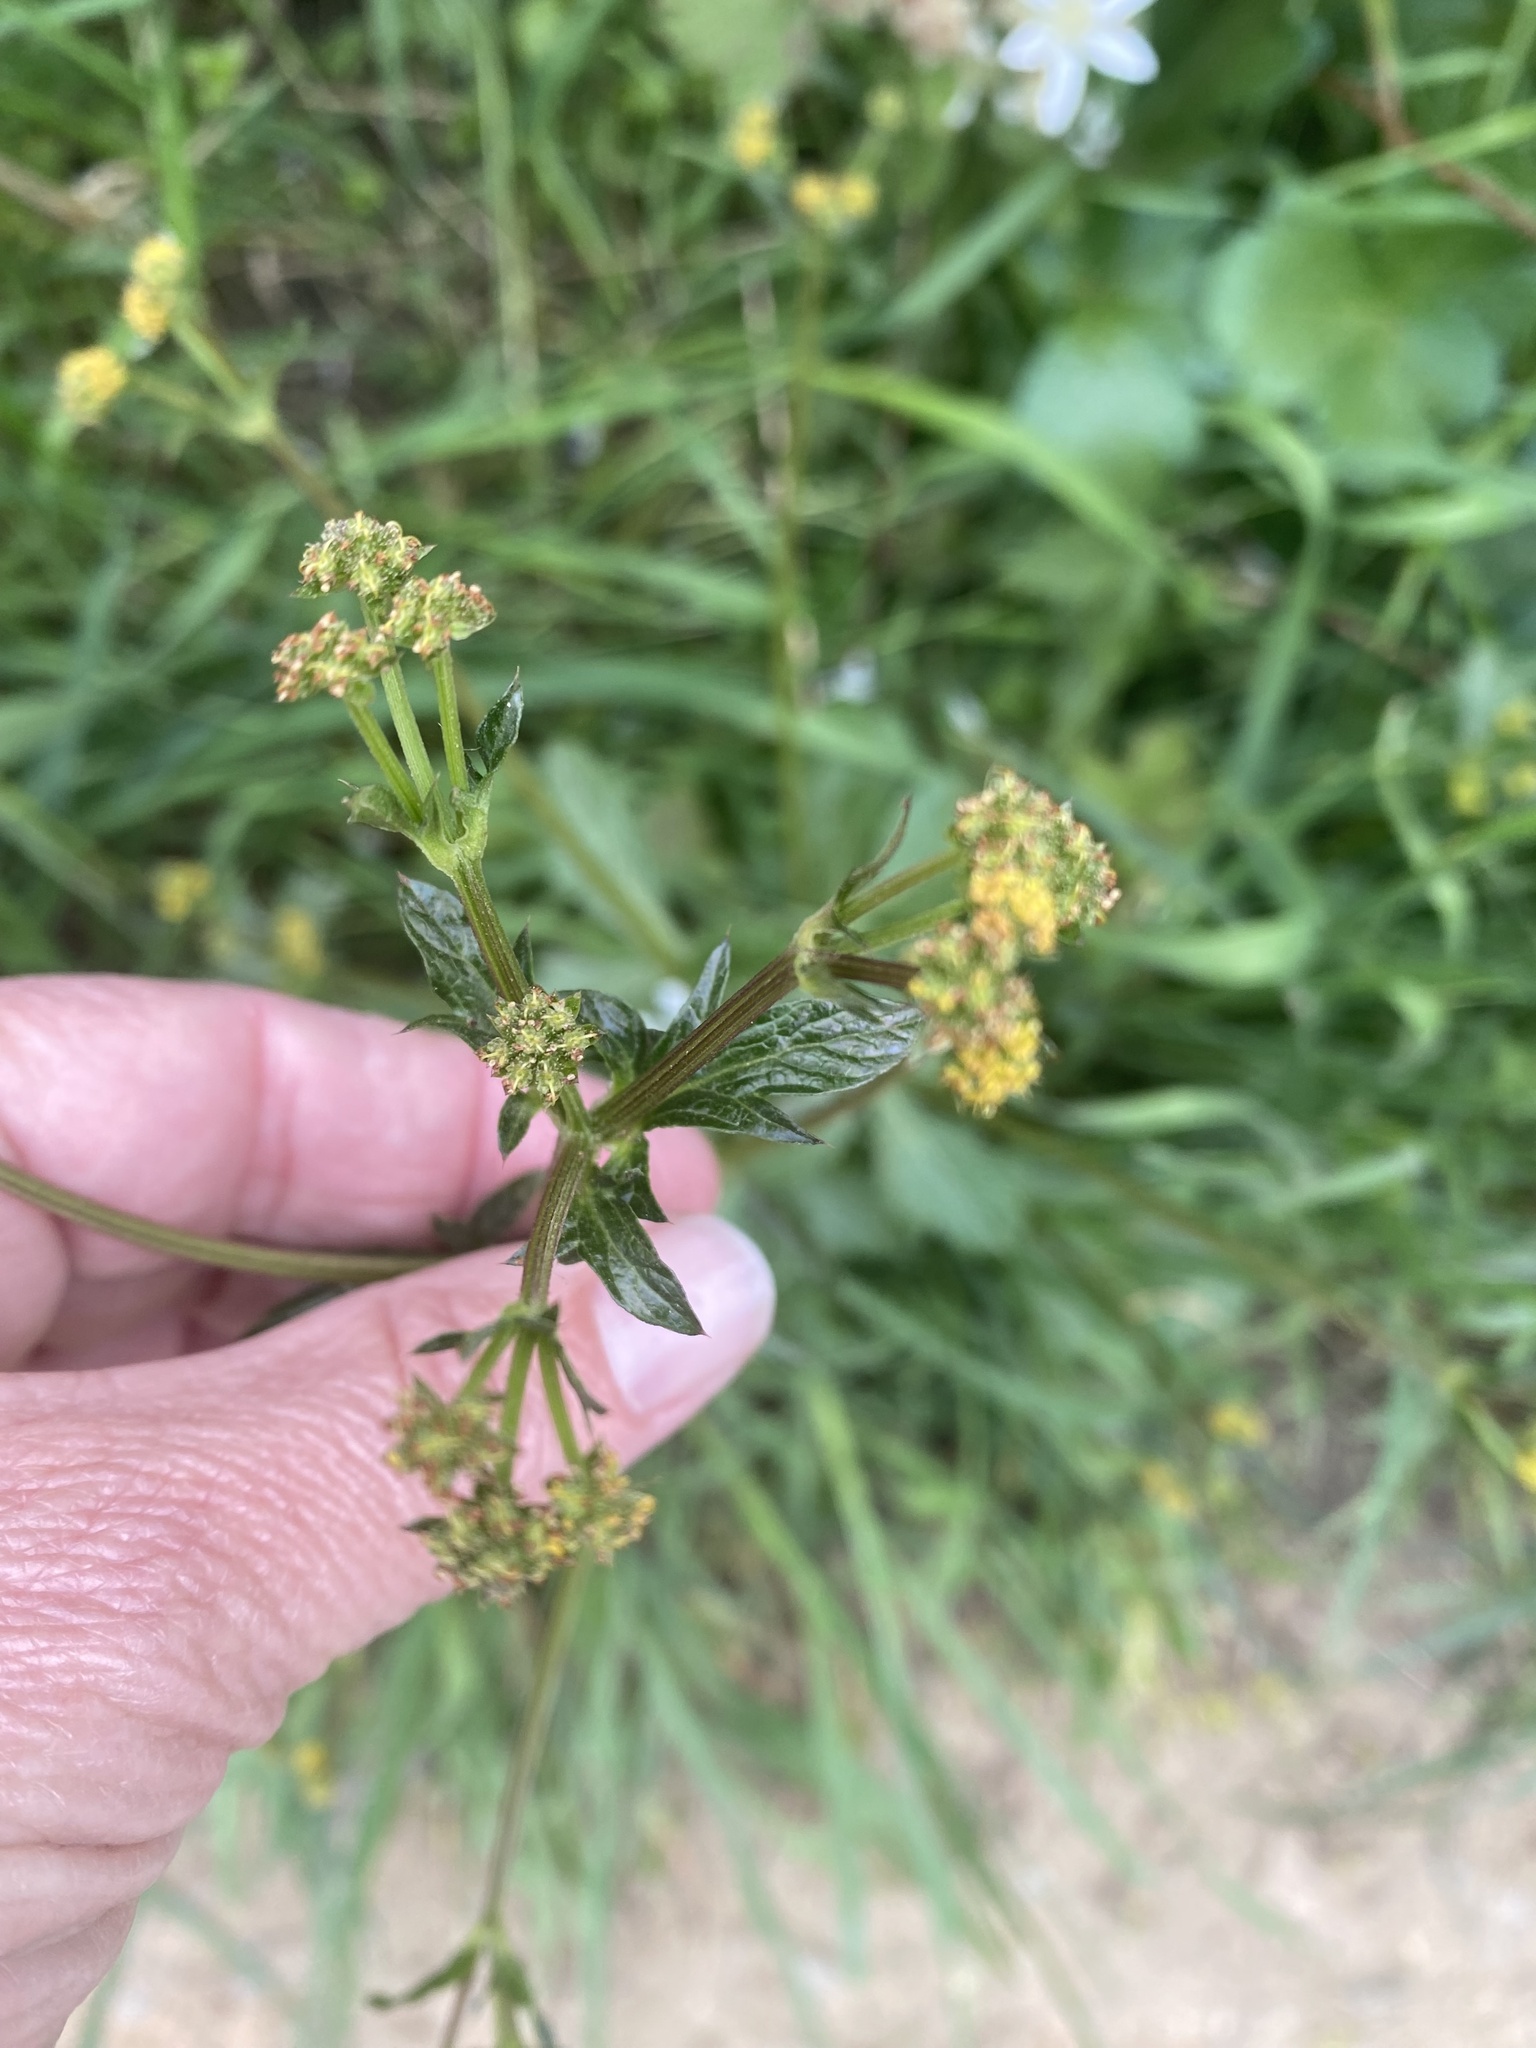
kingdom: Plantae
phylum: Tracheophyta
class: Magnoliopsida
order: Apiales
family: Apiaceae
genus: Sanicula
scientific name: Sanicula crassicaulis
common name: Western snakeroot
